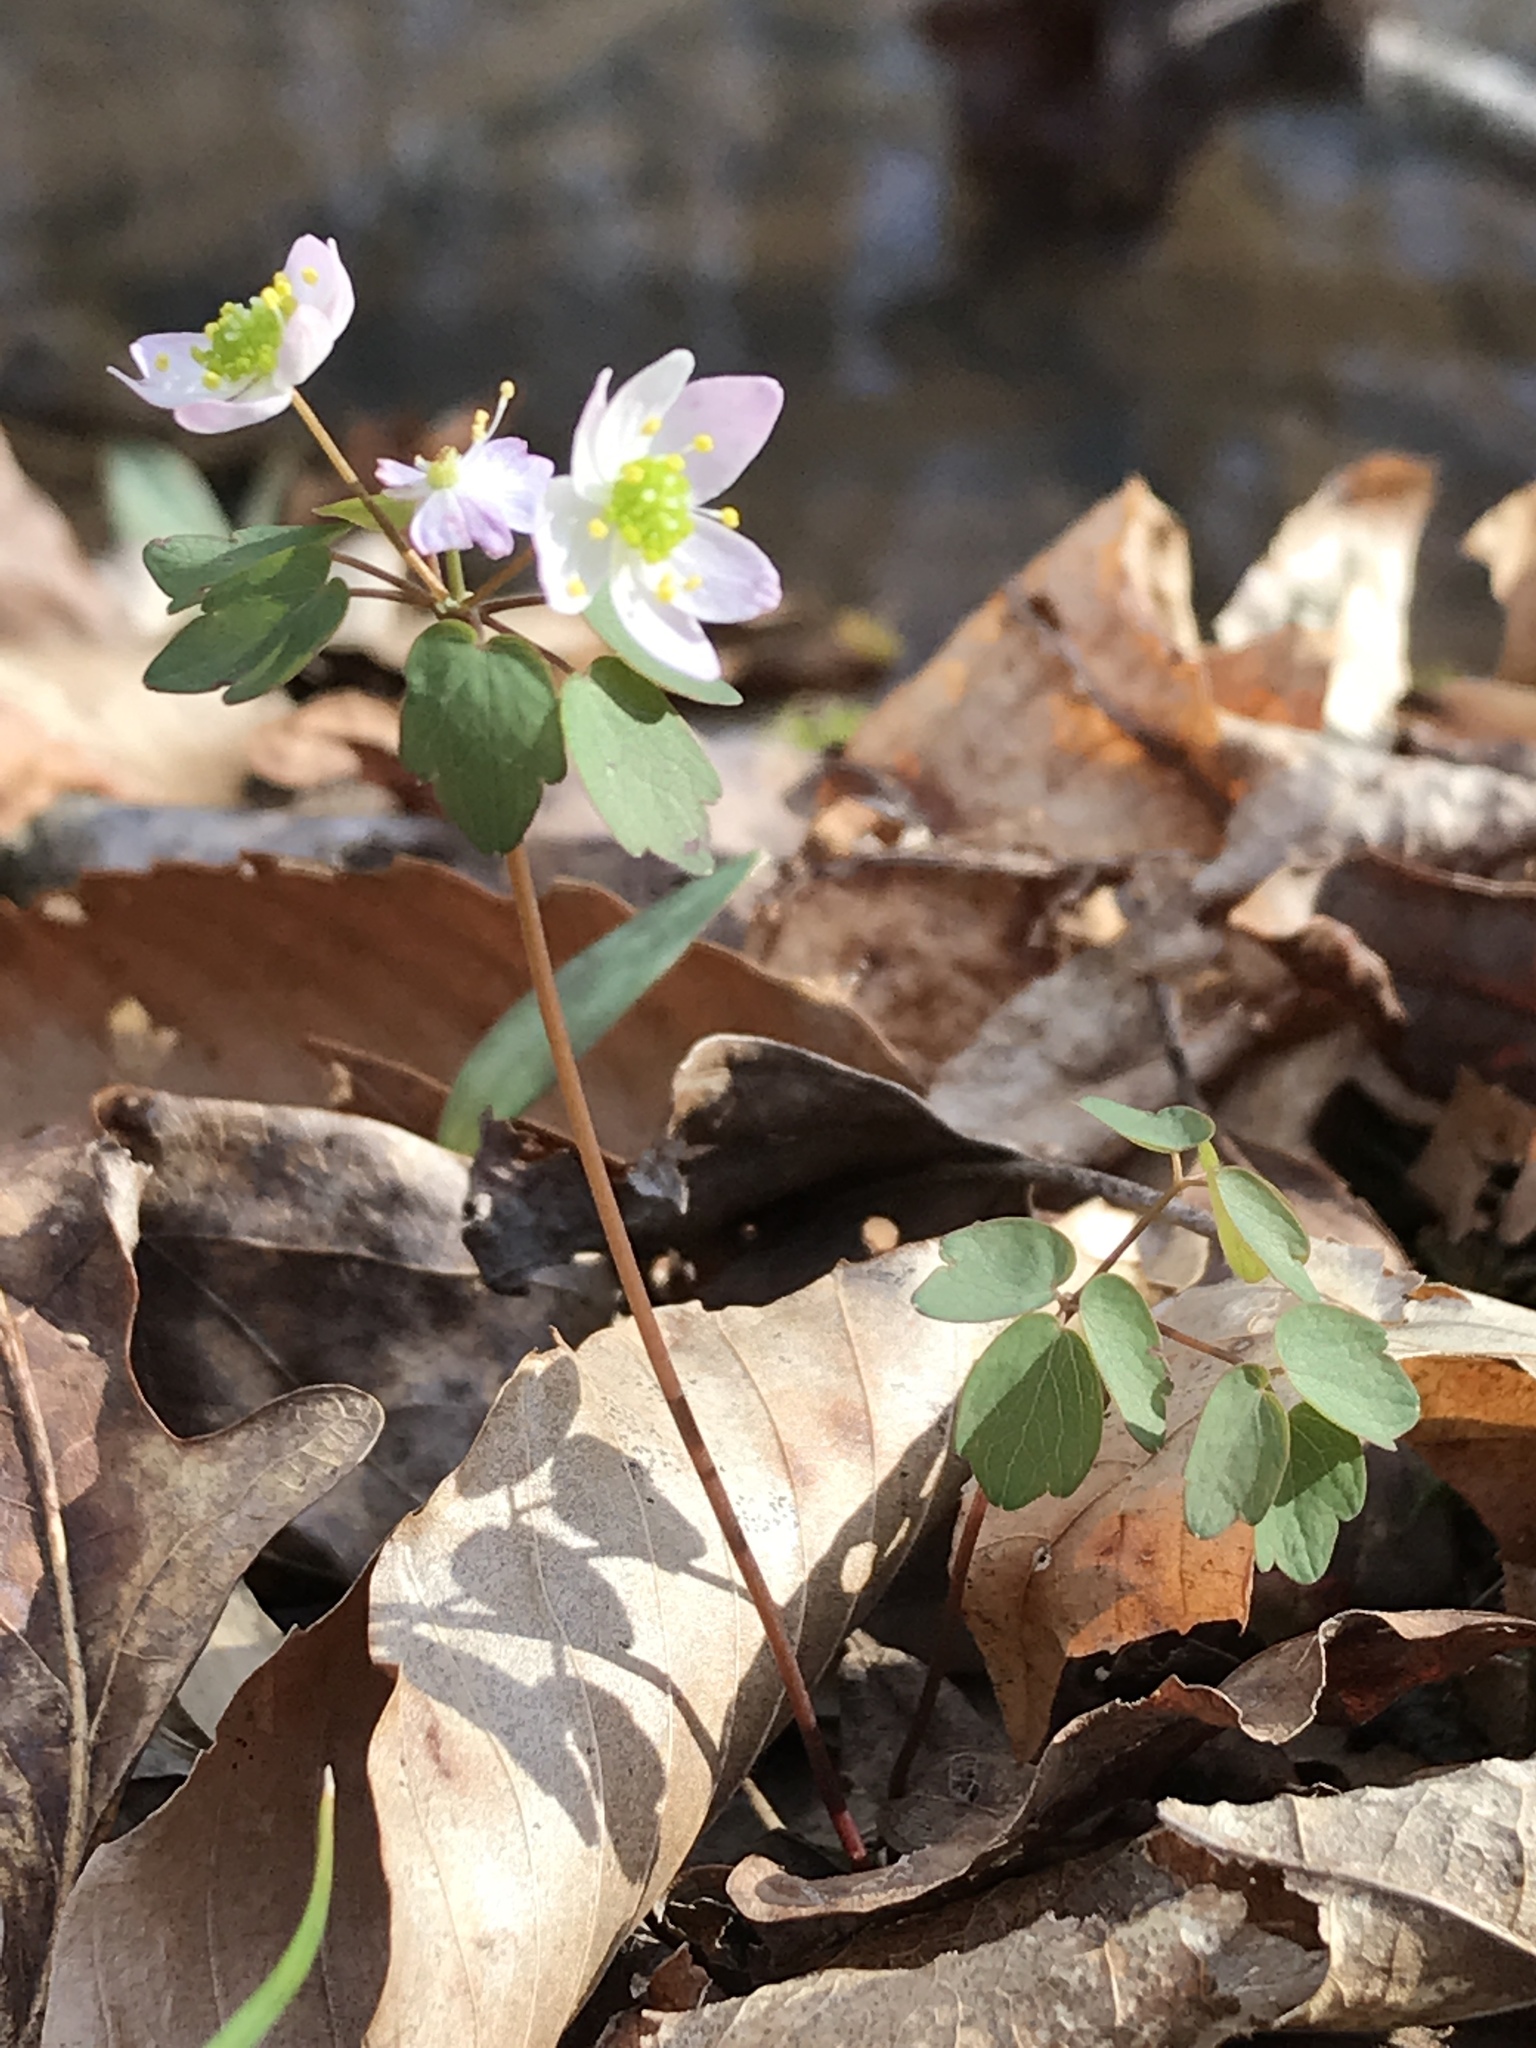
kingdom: Plantae
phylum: Tracheophyta
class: Magnoliopsida
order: Ranunculales
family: Ranunculaceae
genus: Thalictrum
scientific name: Thalictrum thalictroides
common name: Rue-anemone
